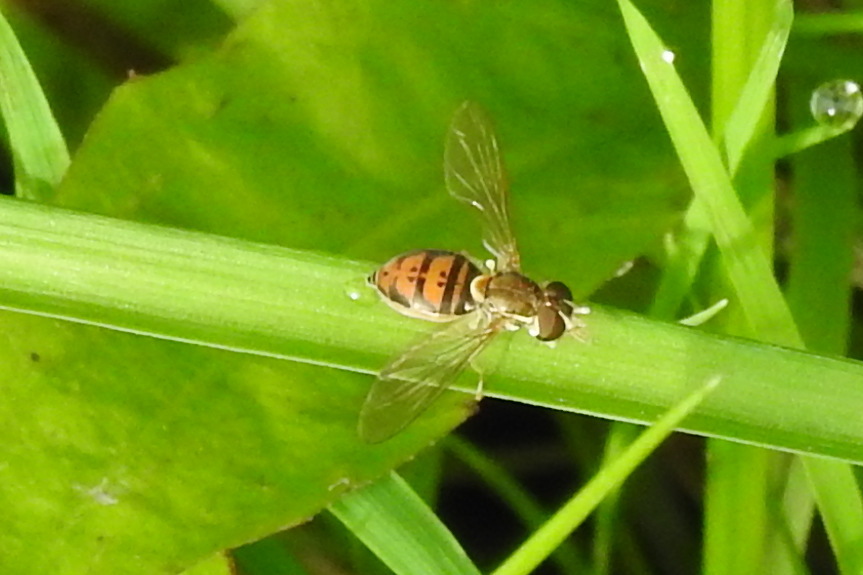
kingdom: Animalia
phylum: Arthropoda
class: Insecta
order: Diptera
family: Syrphidae
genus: Toxomerus
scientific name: Toxomerus marginatus
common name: Syrphid fly
